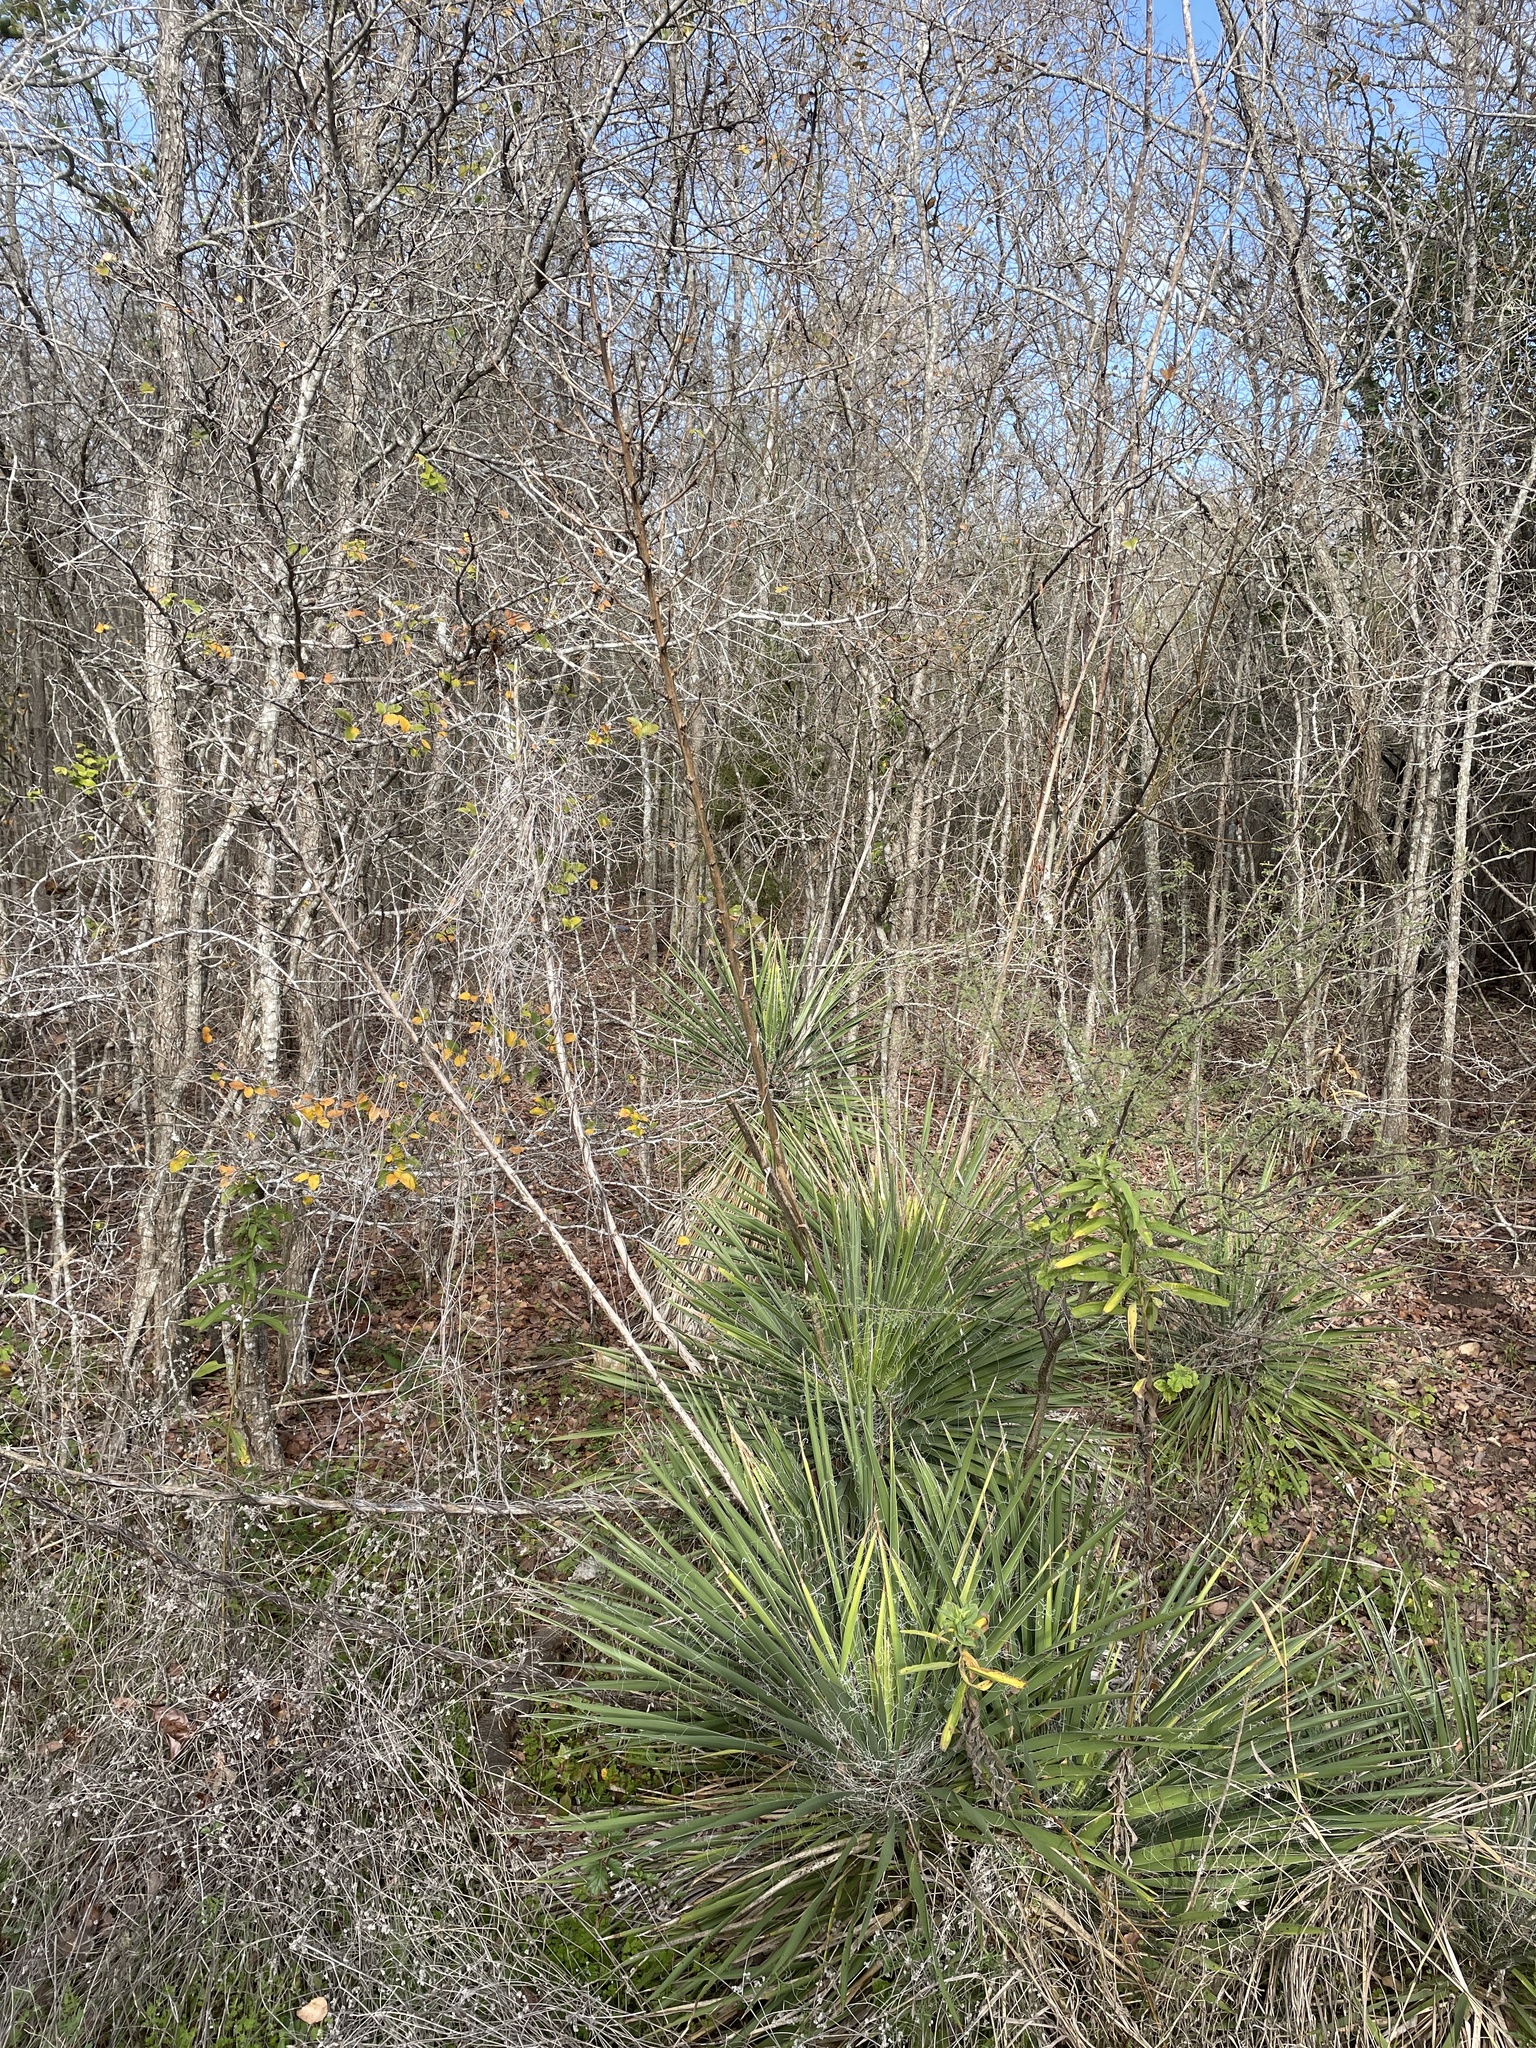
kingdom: Plantae
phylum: Tracheophyta
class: Liliopsida
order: Asparagales
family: Asparagaceae
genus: Yucca
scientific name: Yucca constricta
